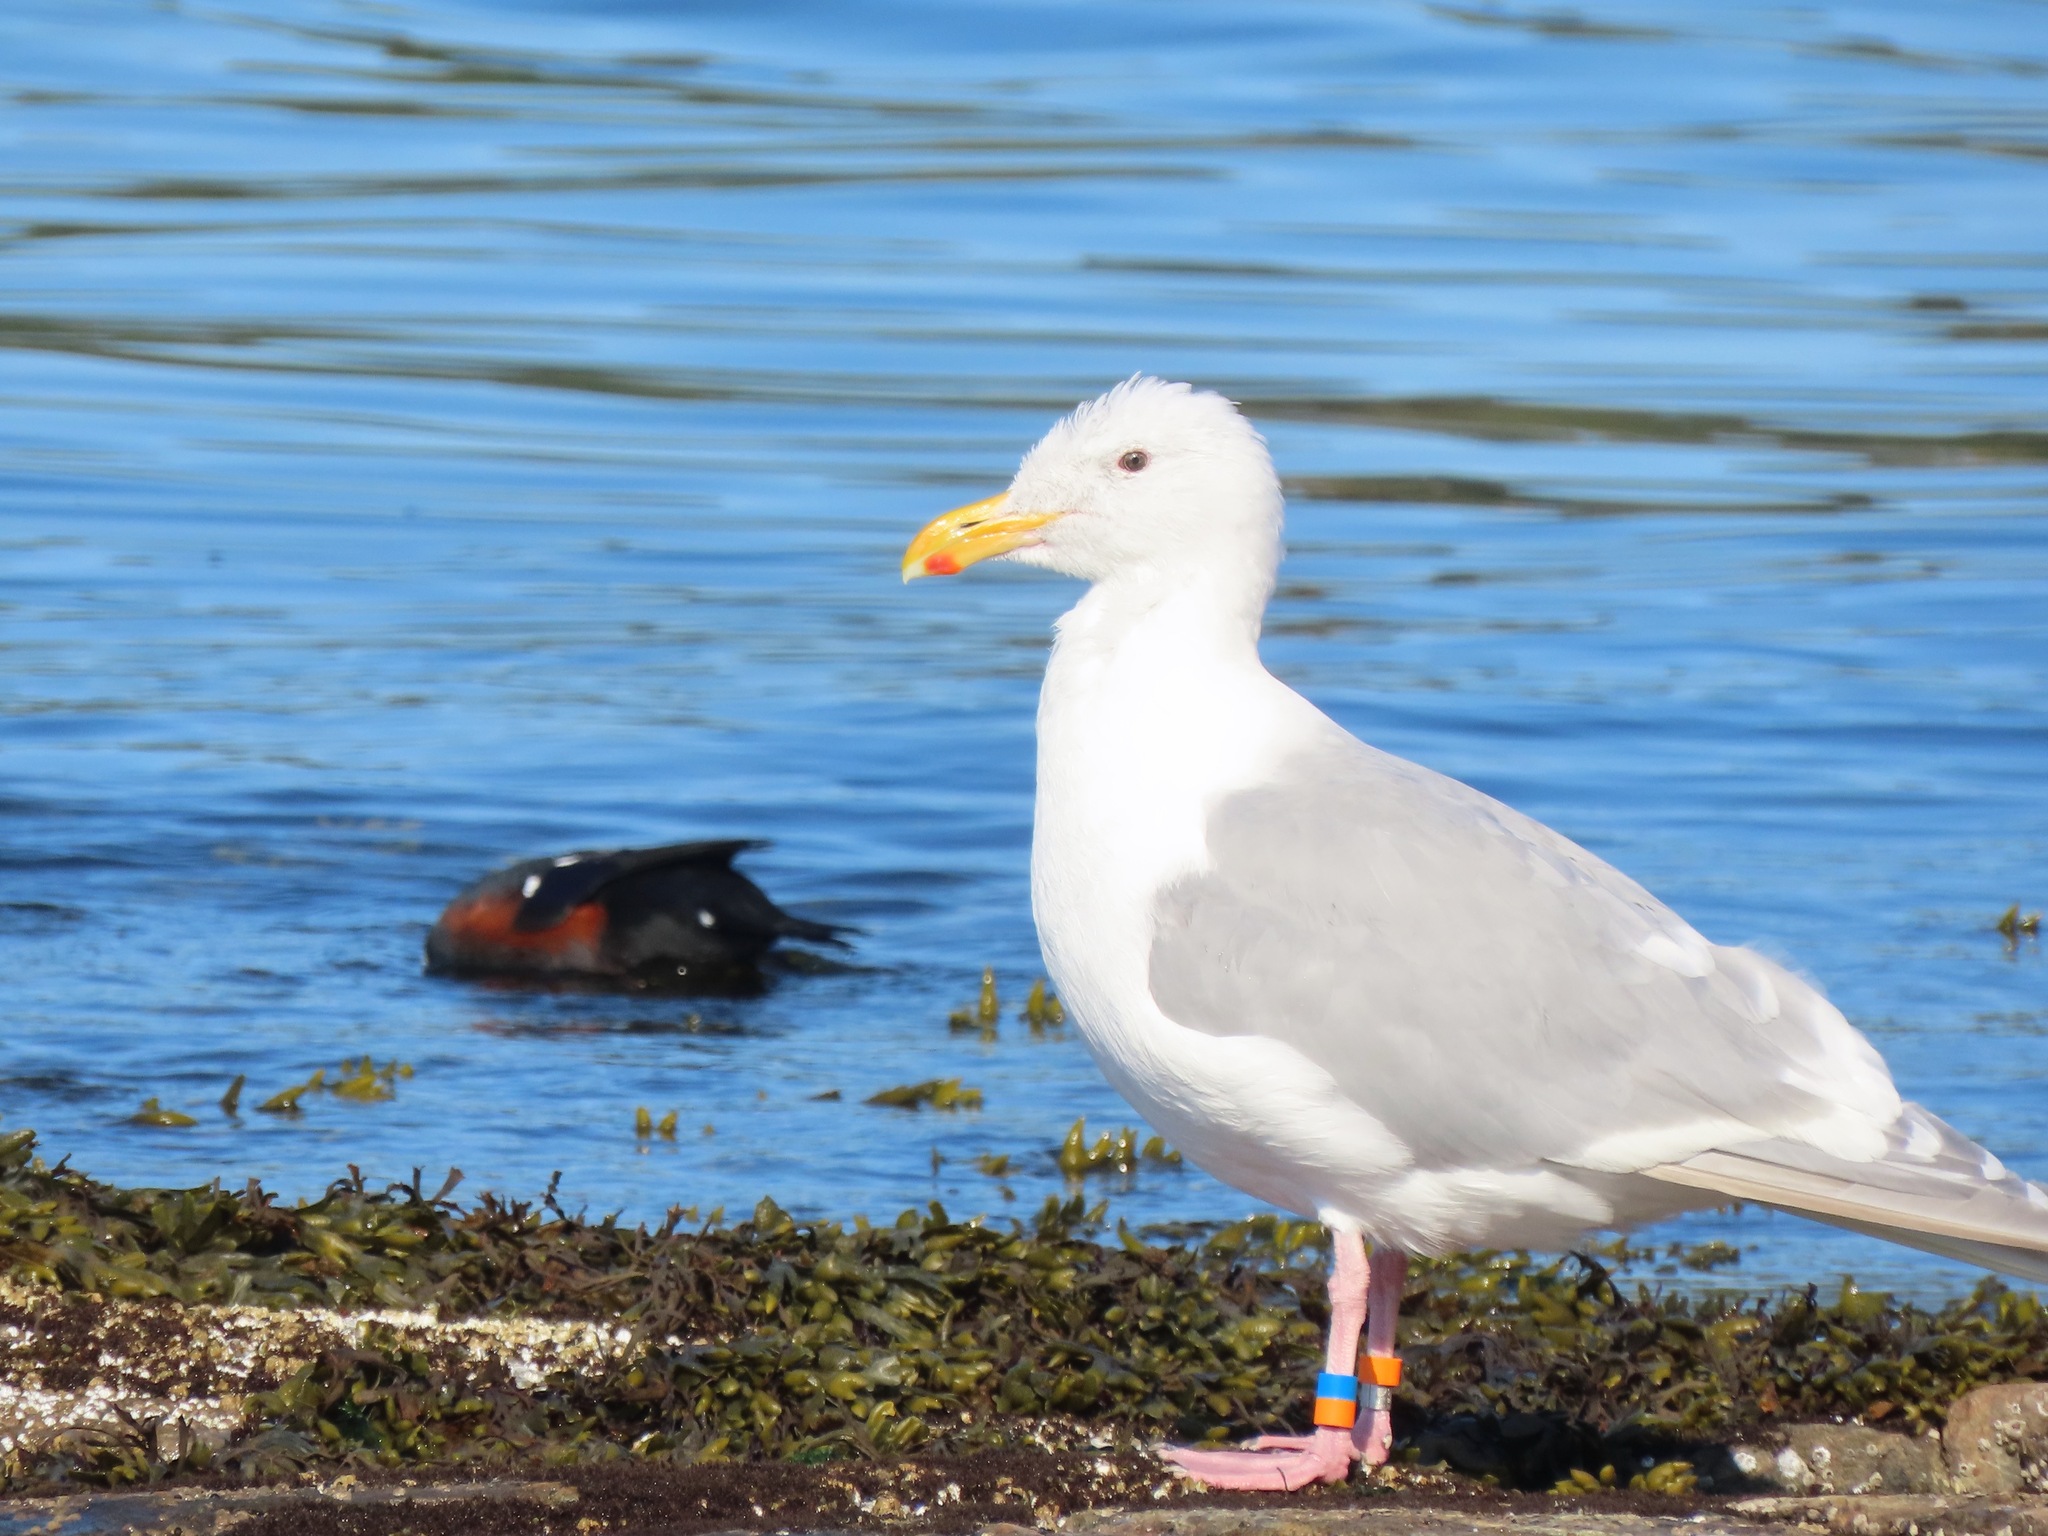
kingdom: Animalia
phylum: Chordata
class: Aves
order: Charadriiformes
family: Laridae
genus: Larus
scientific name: Larus glaucescens
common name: Glaucous-winged gull
